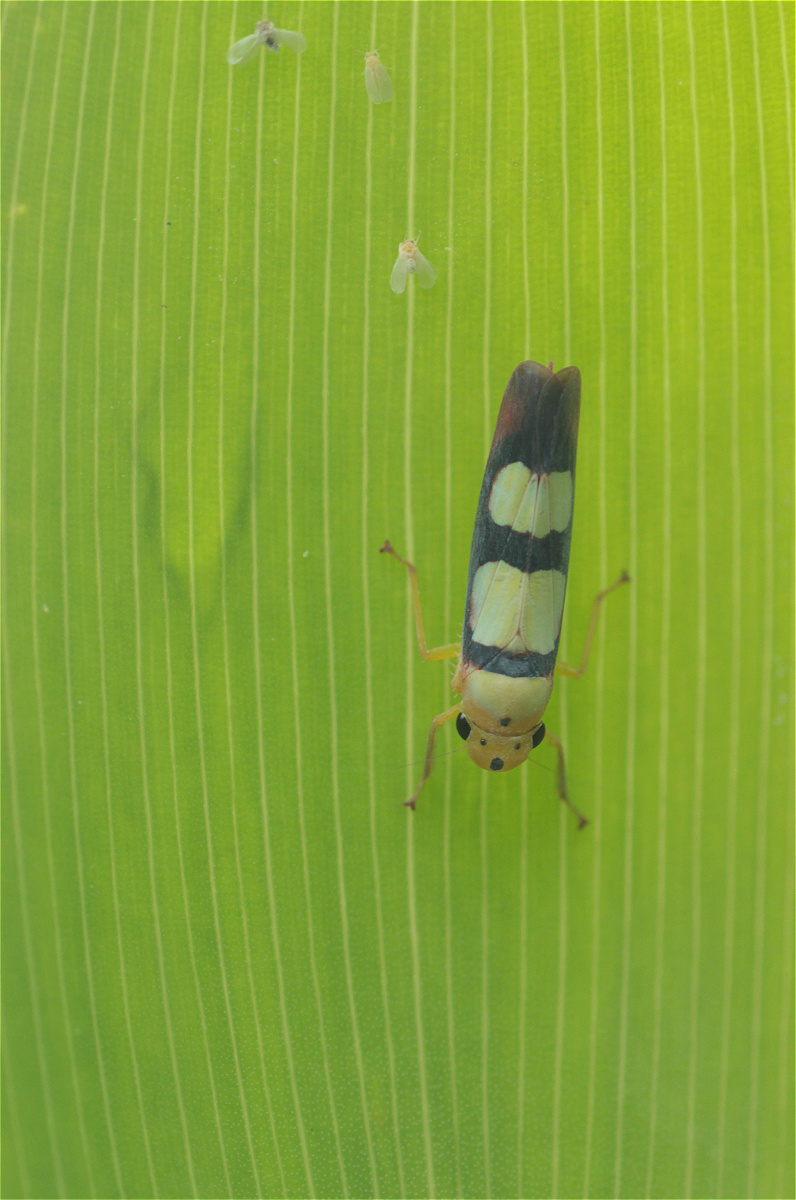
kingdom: Animalia
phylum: Arthropoda
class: Insecta
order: Hemiptera
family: Cicadellidae
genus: Tettisama
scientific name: Tettisama bisellata
